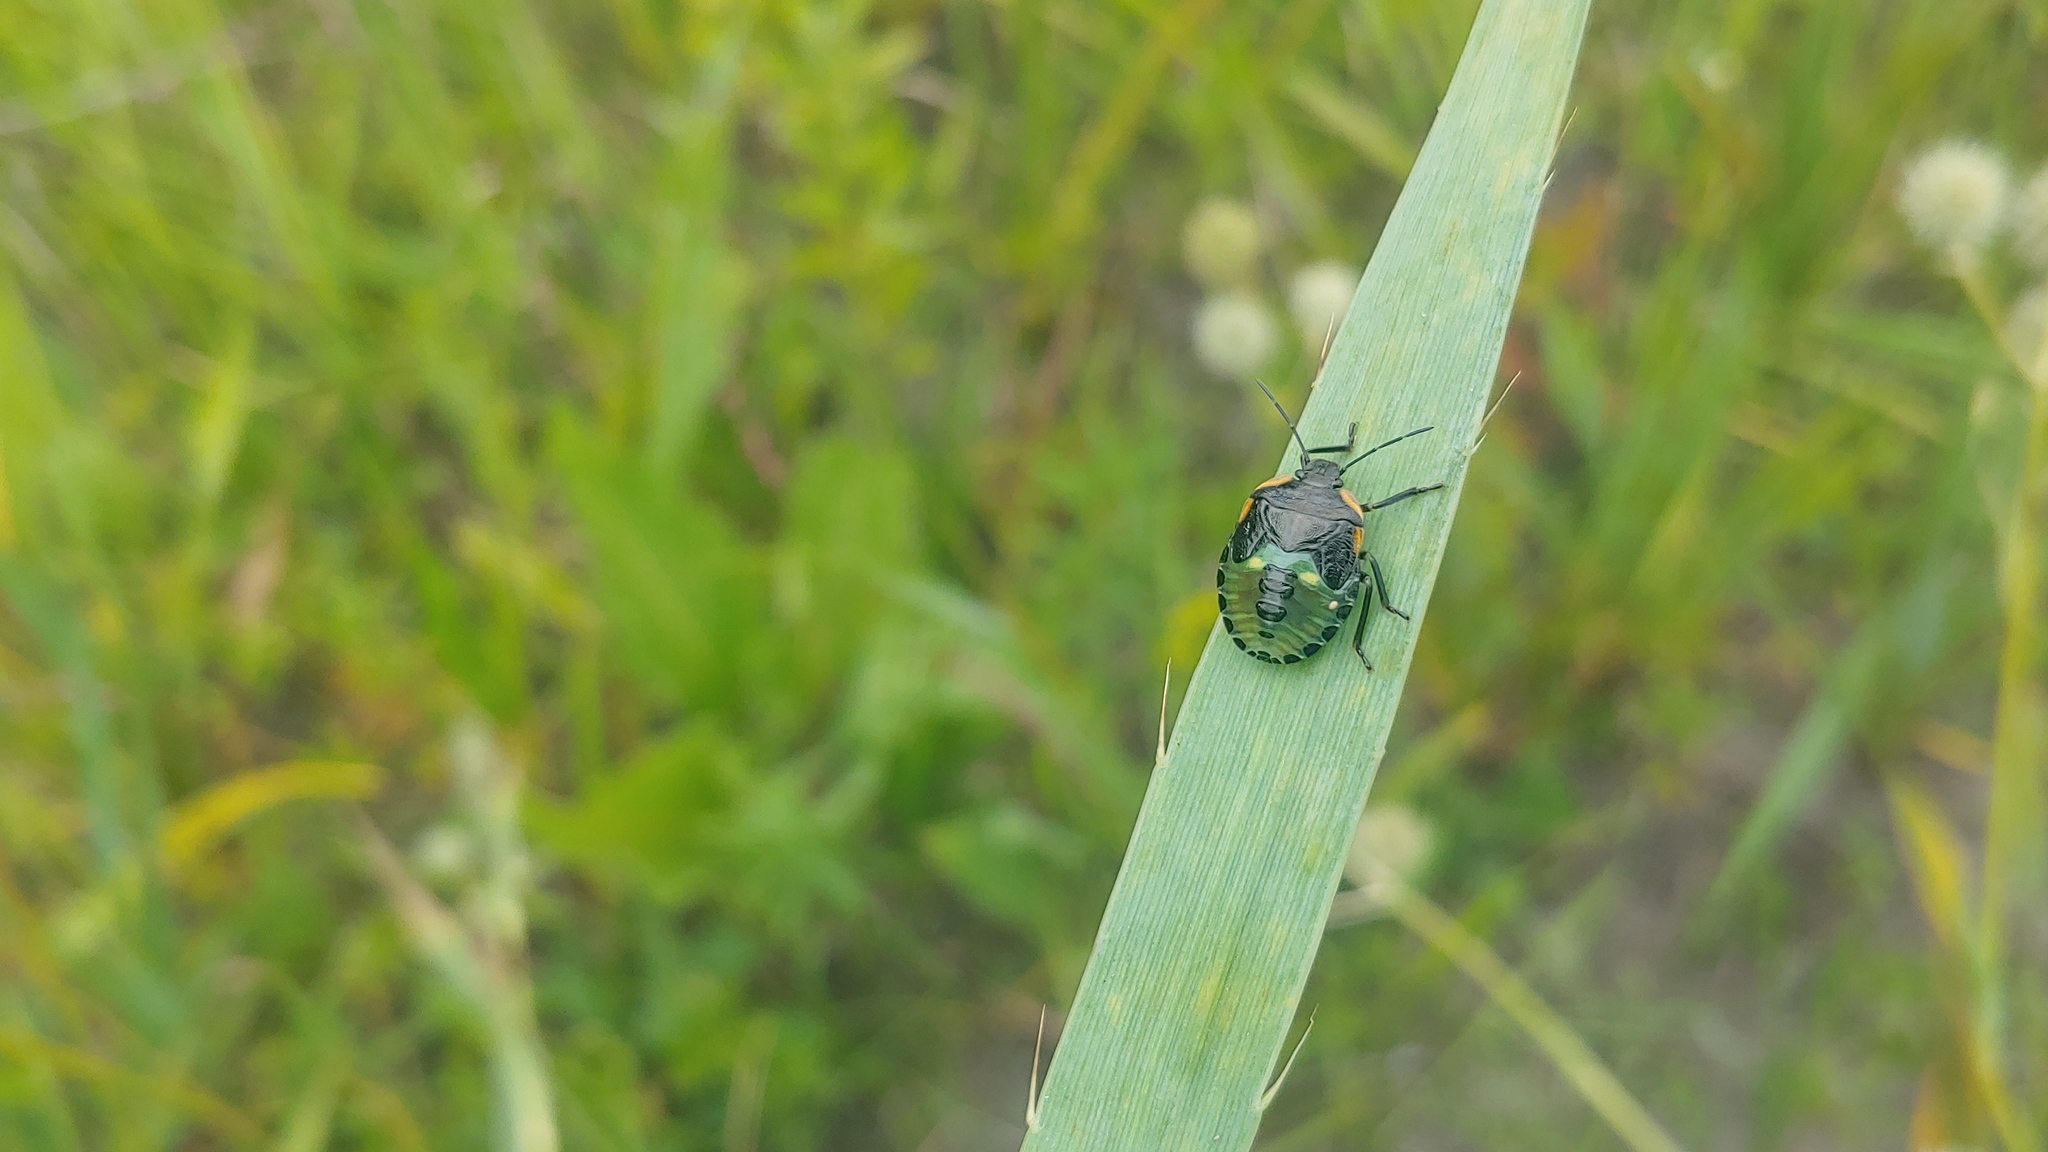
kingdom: Animalia
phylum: Arthropoda
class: Insecta
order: Hemiptera
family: Pentatomidae
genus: Chinavia
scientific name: Chinavia hilaris
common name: Green stink bug
